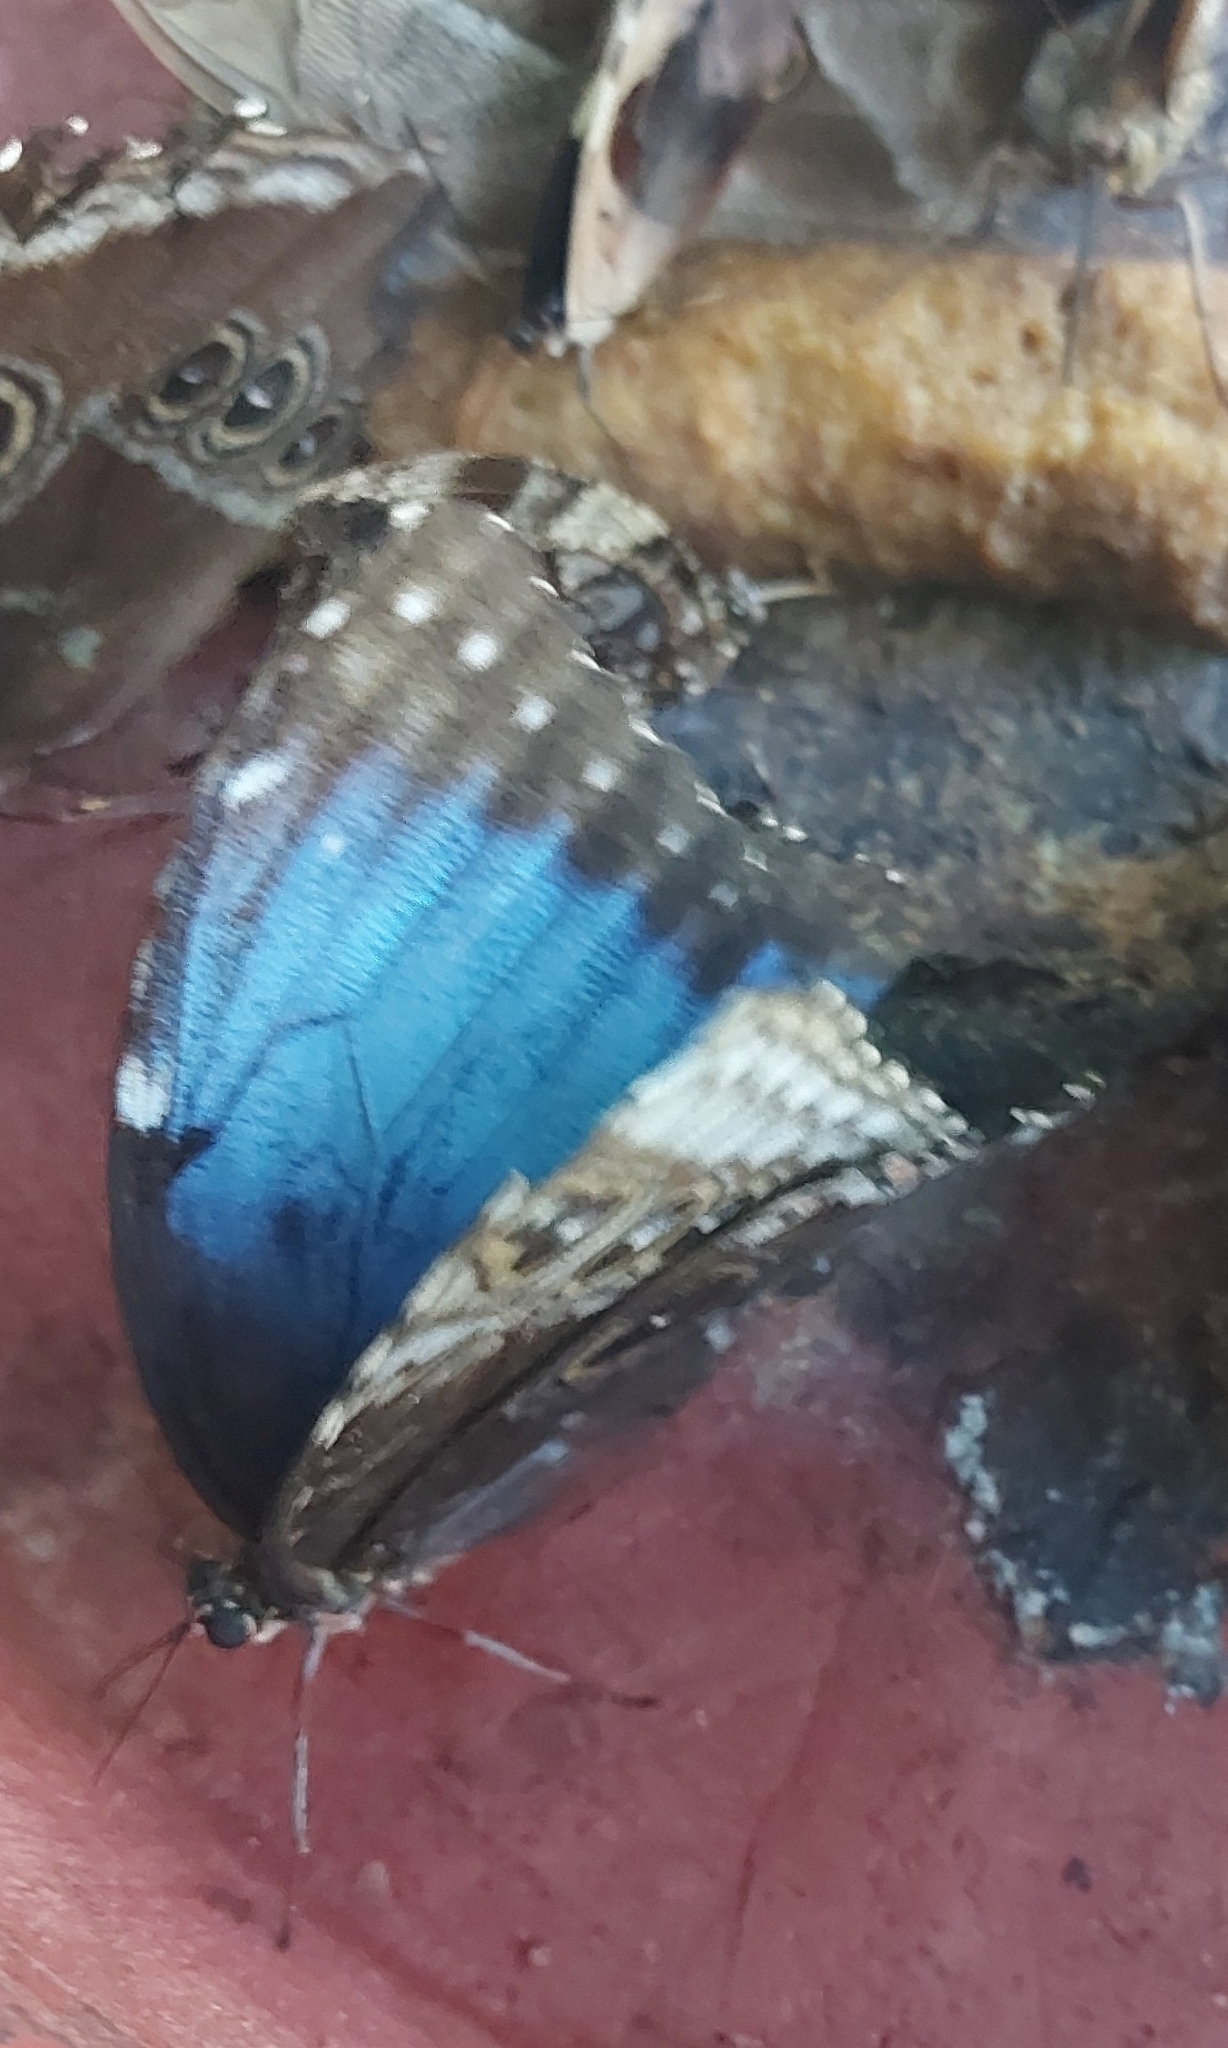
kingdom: Animalia
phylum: Arthropoda
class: Insecta
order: Lepidoptera
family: Nymphalidae
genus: Morpho
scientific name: Morpho helenor
